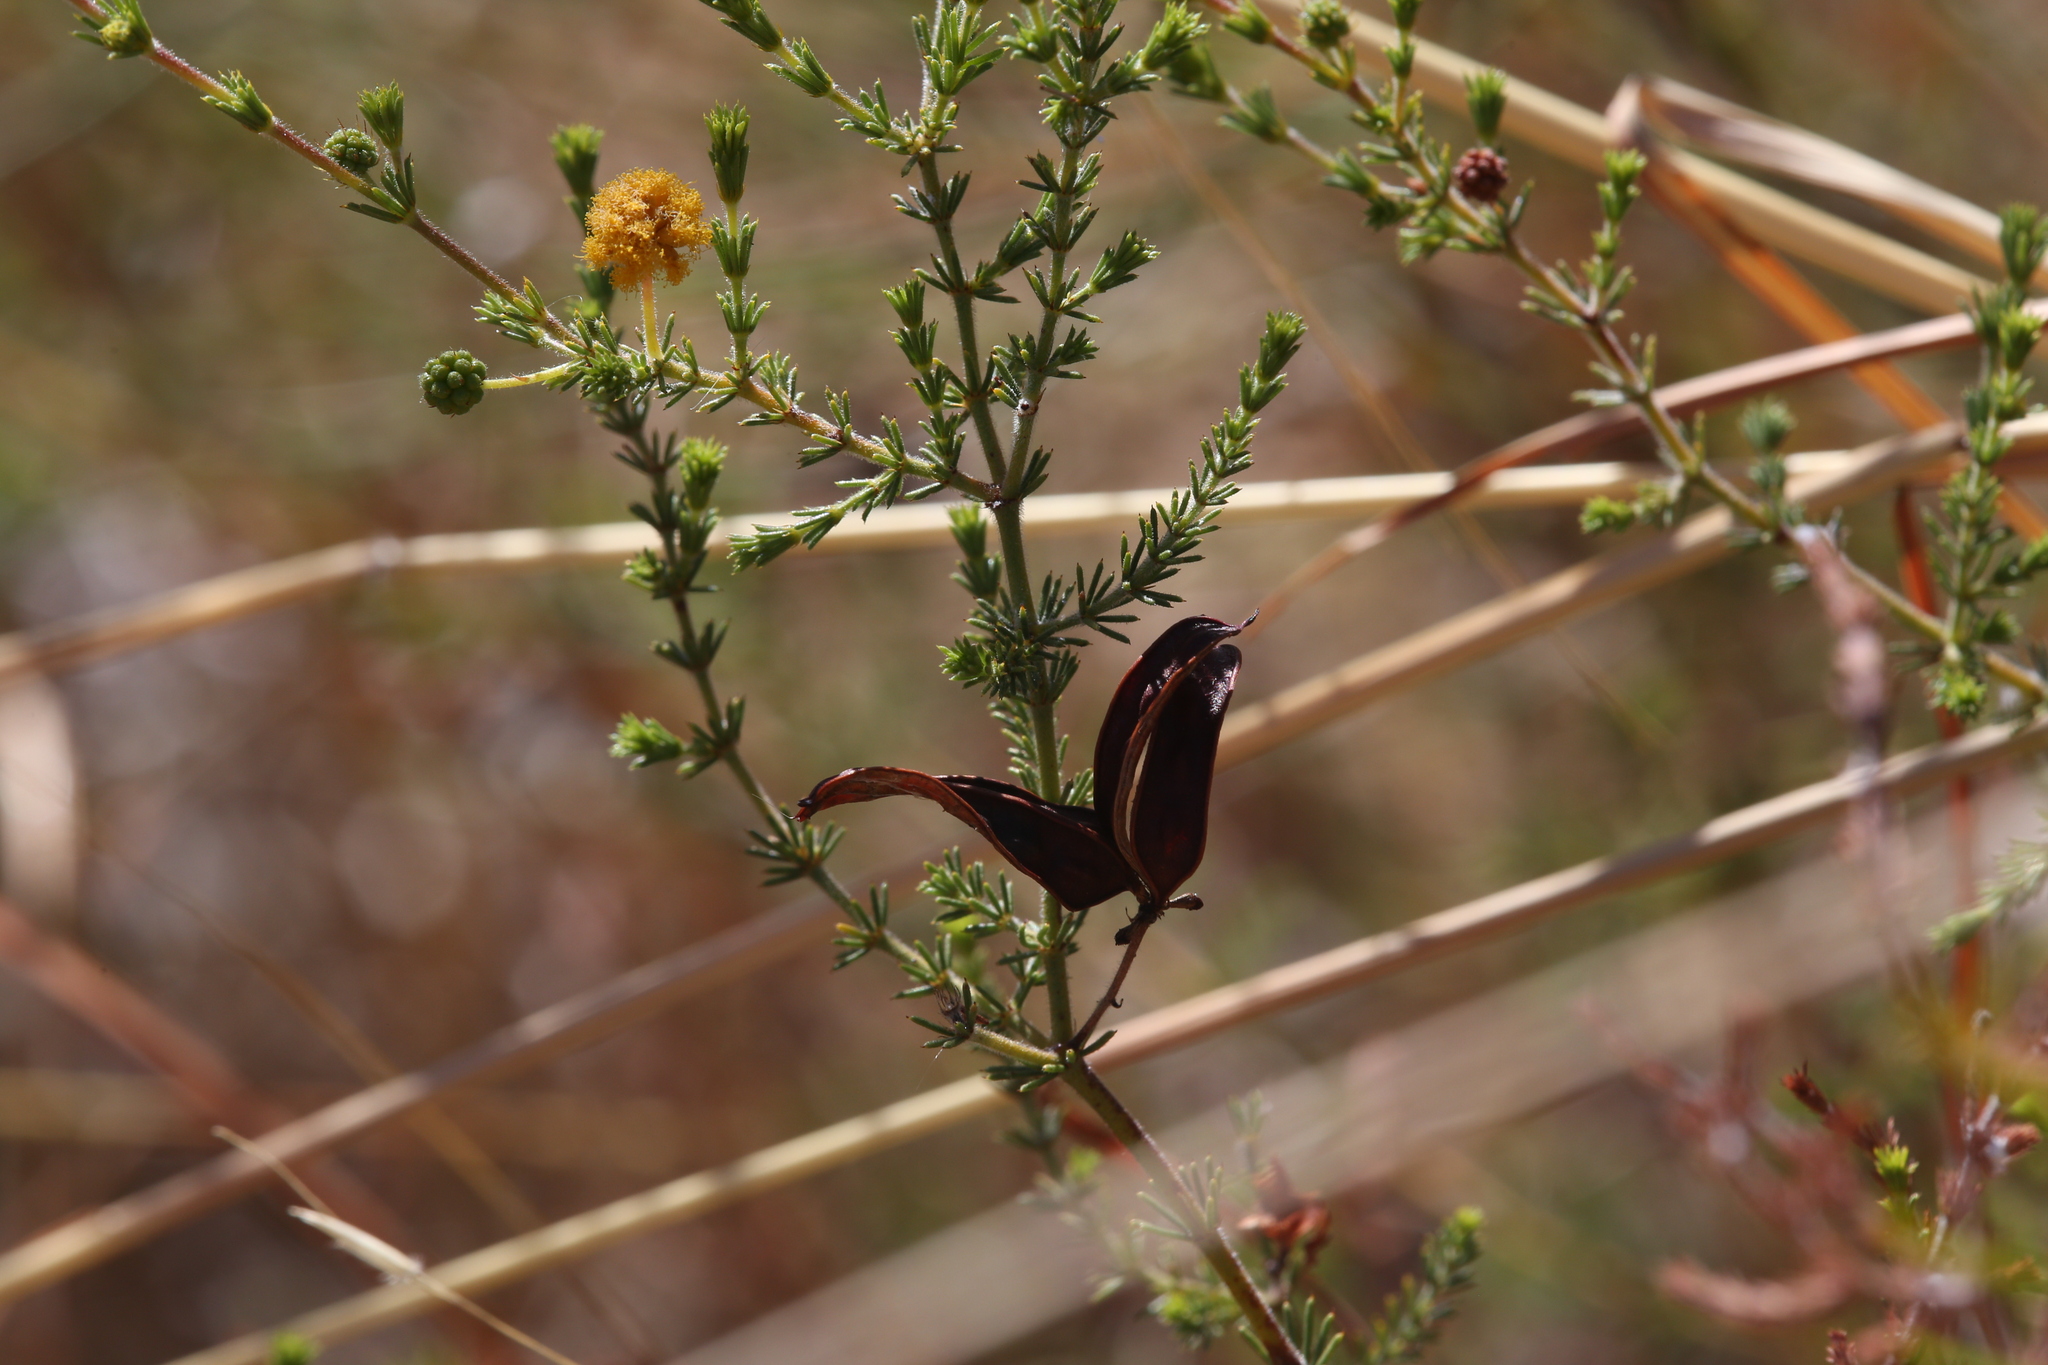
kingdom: Plantae
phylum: Tracheophyta
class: Magnoliopsida
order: Fabales
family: Fabaceae
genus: Acacia
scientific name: Acacia lycopodiifolia
